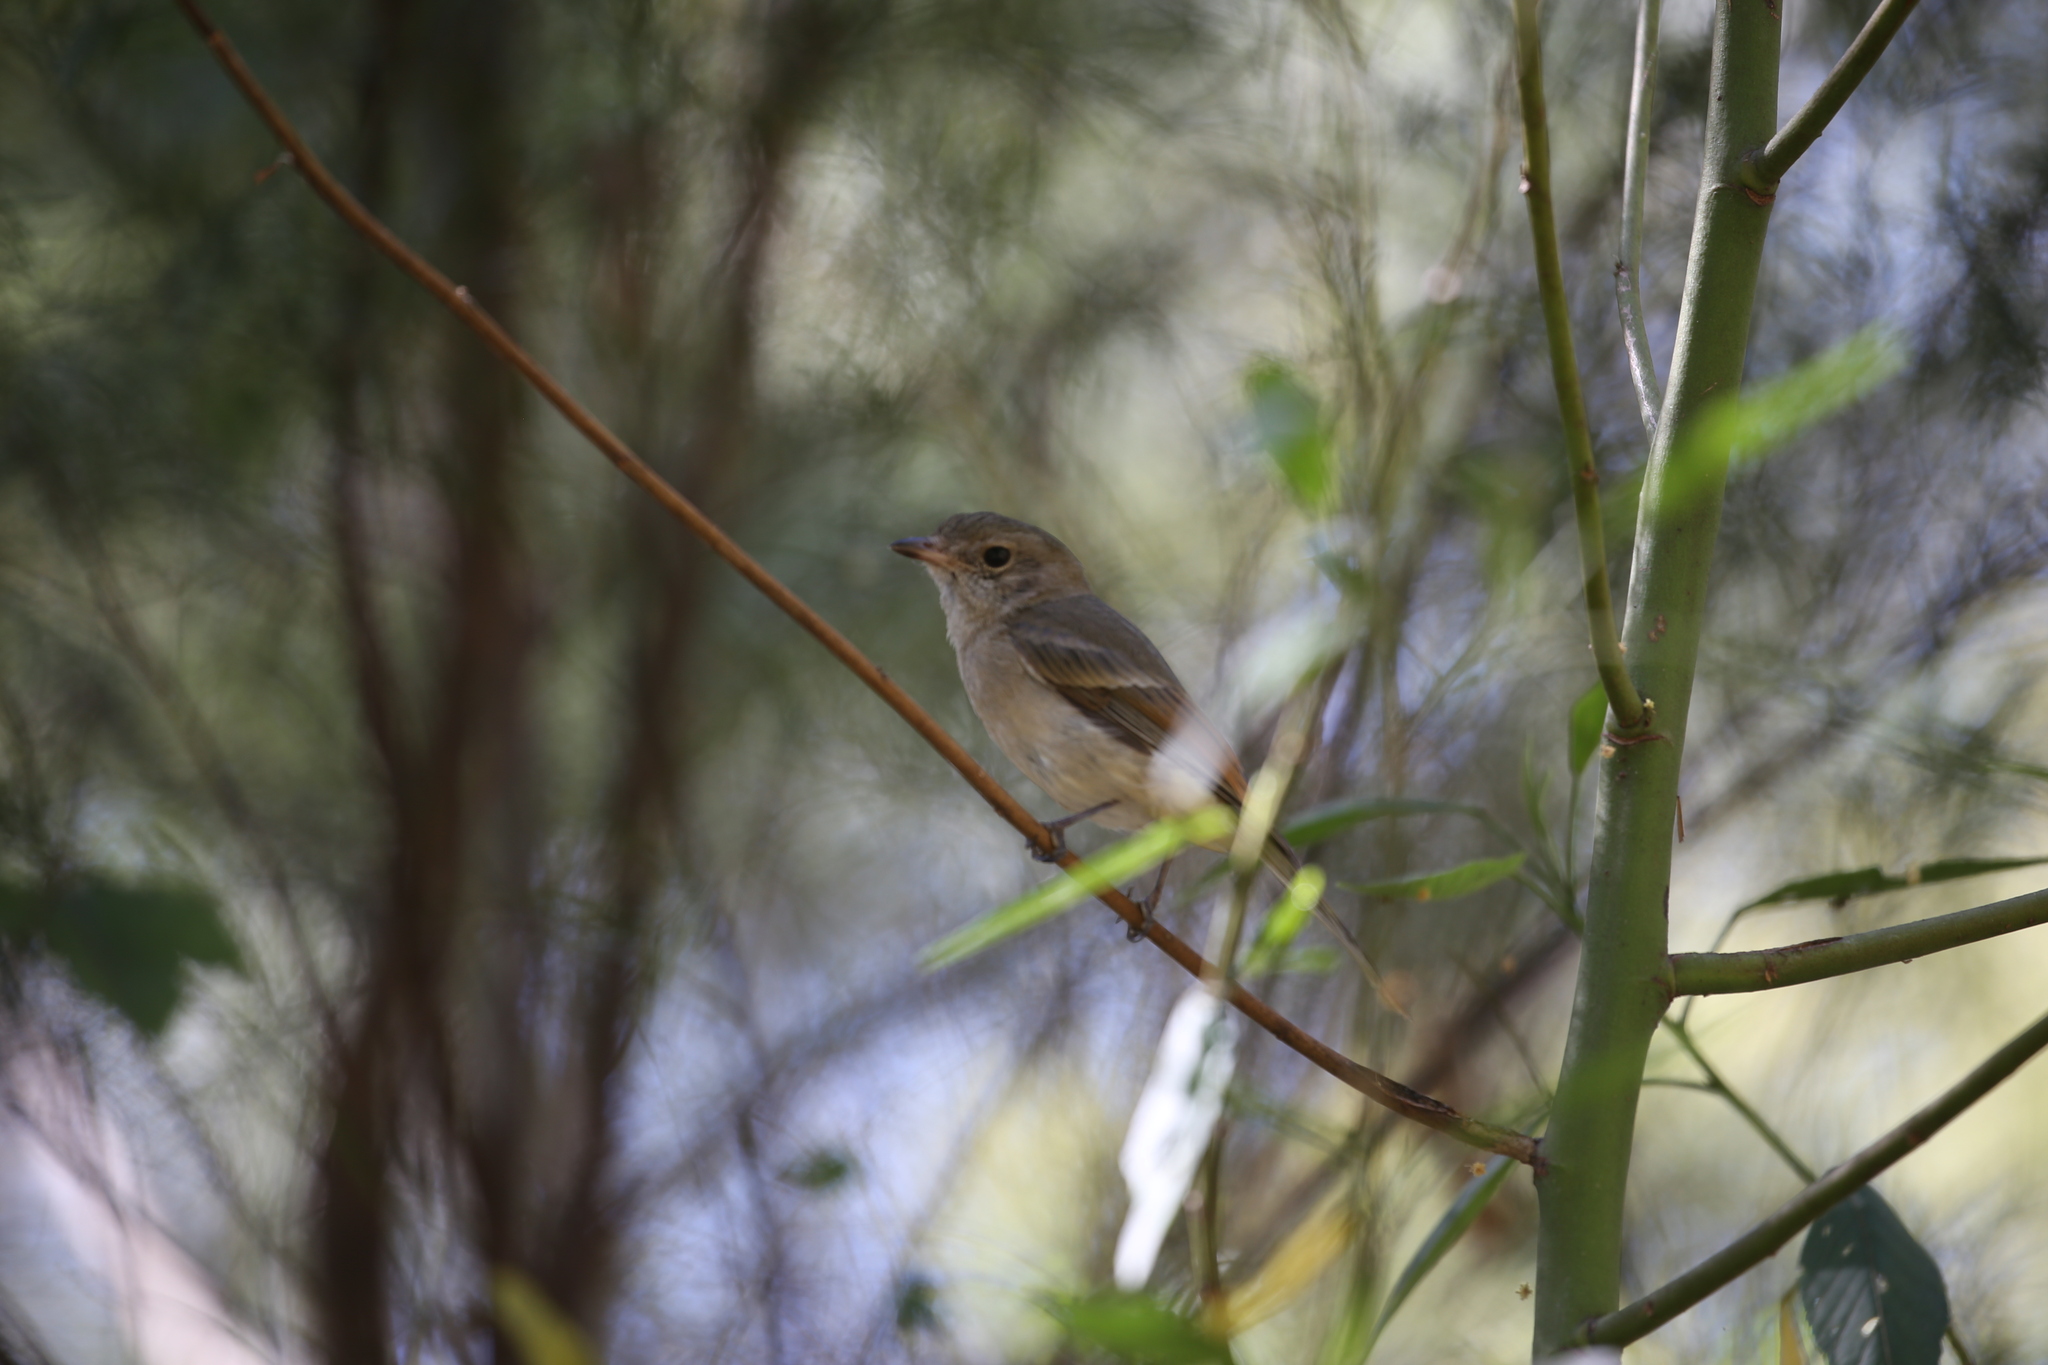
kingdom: Animalia
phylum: Chordata
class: Aves
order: Passeriformes
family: Pachycephalidae
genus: Pachycephala
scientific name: Pachycephala pectoralis
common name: Australian golden whistler
